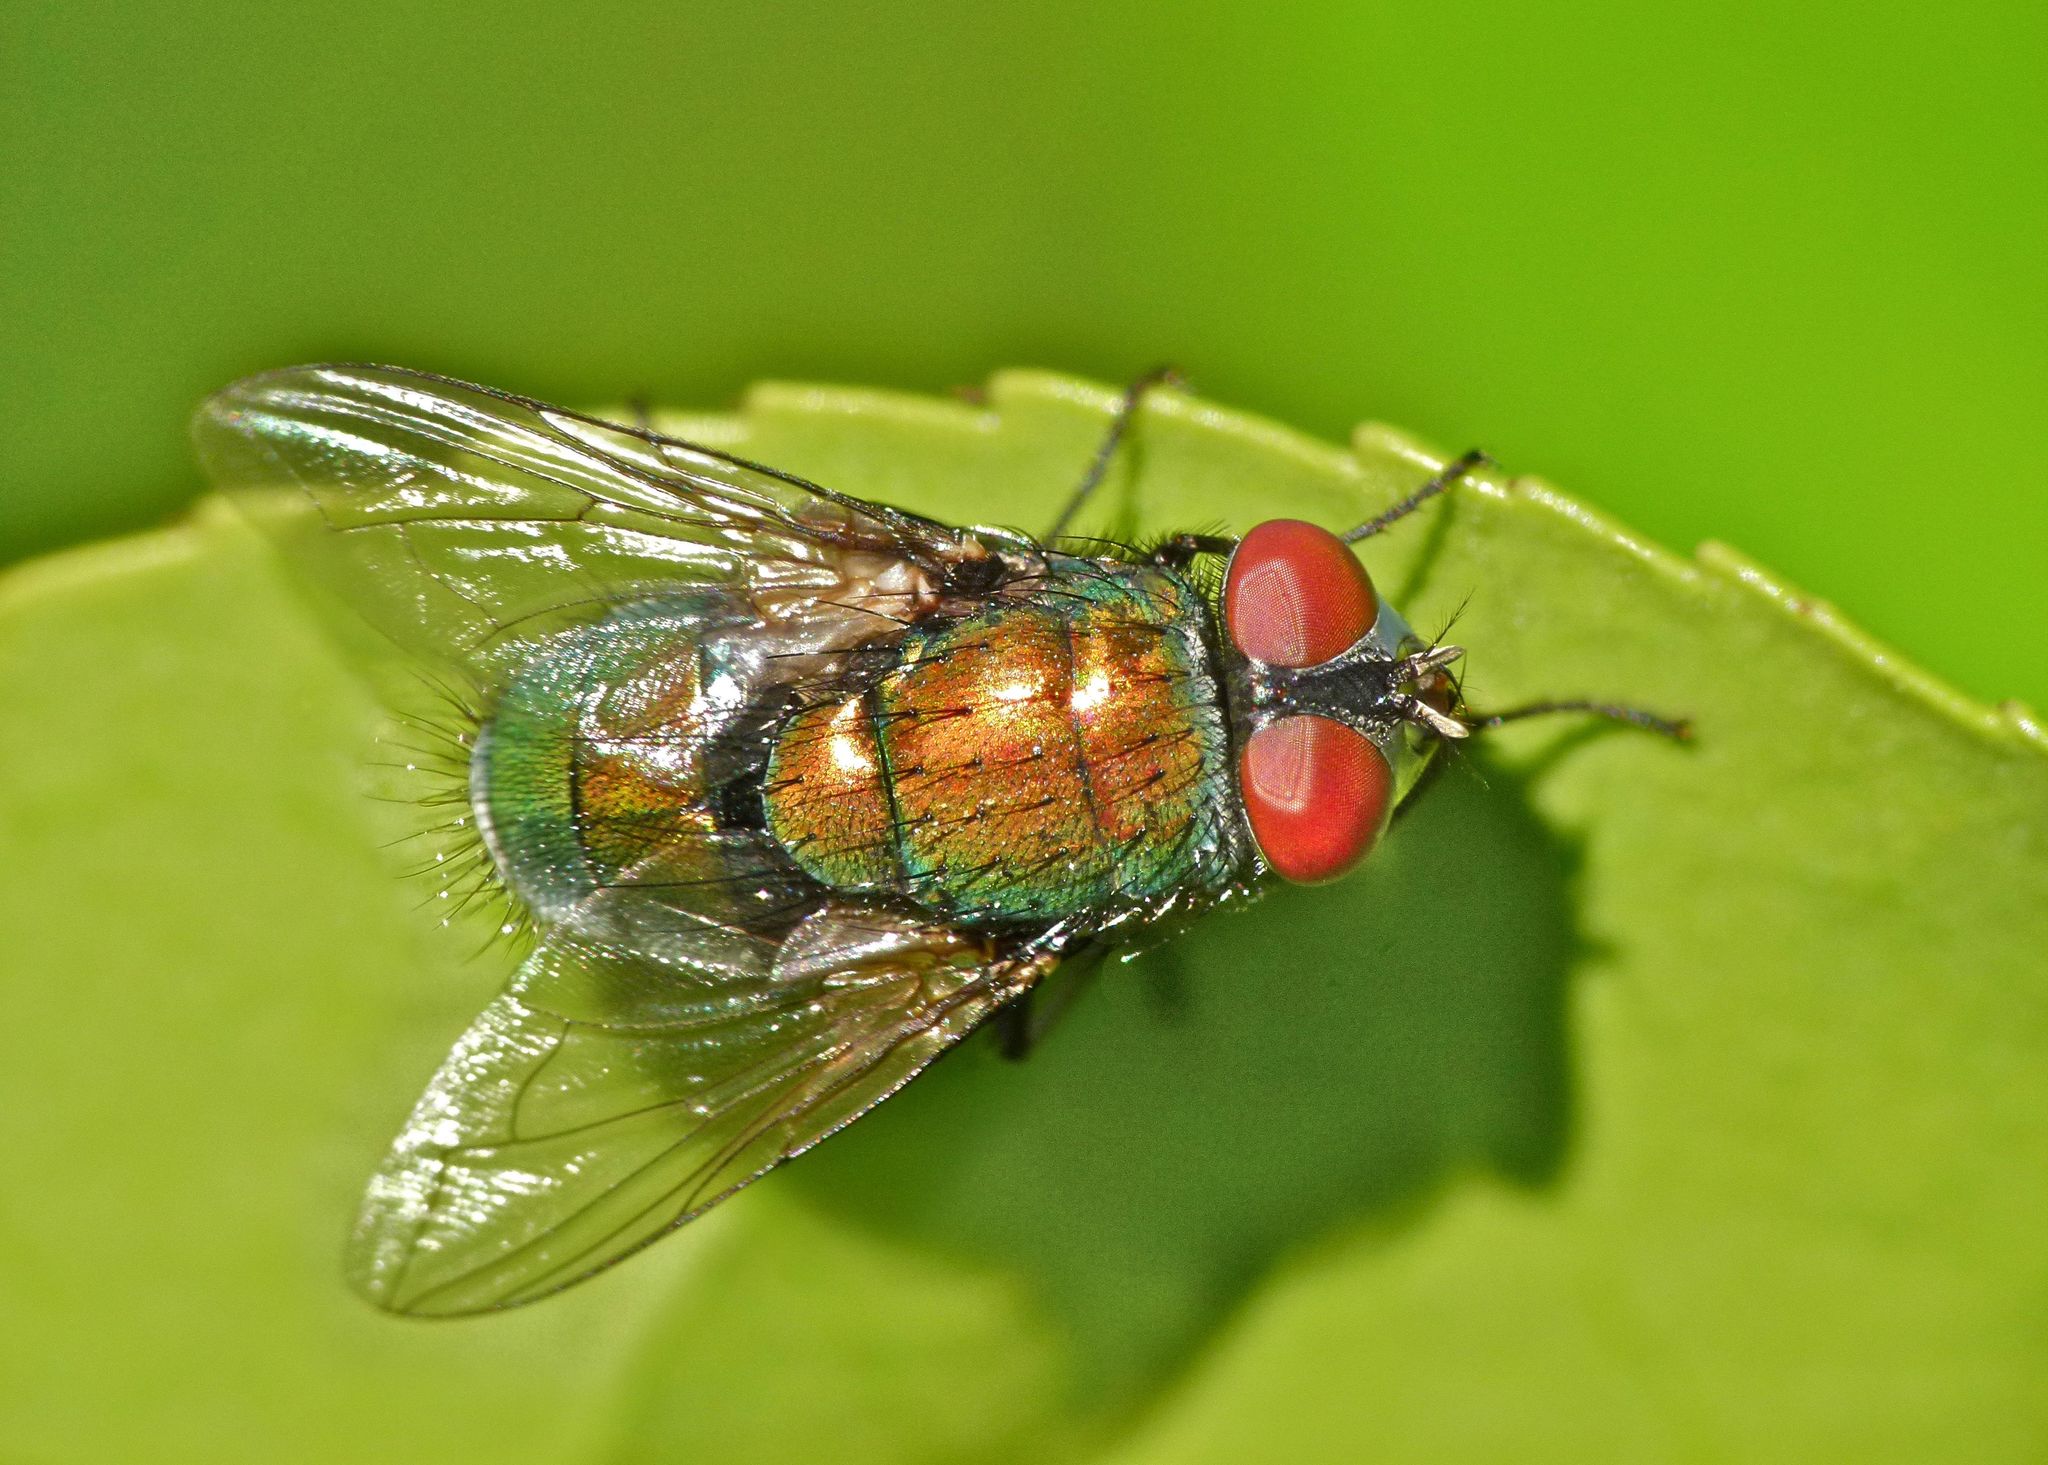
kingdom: Animalia
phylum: Arthropoda
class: Insecta
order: Diptera
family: Calliphoridae
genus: Lucilia
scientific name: Lucilia sericata
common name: Blow fly
